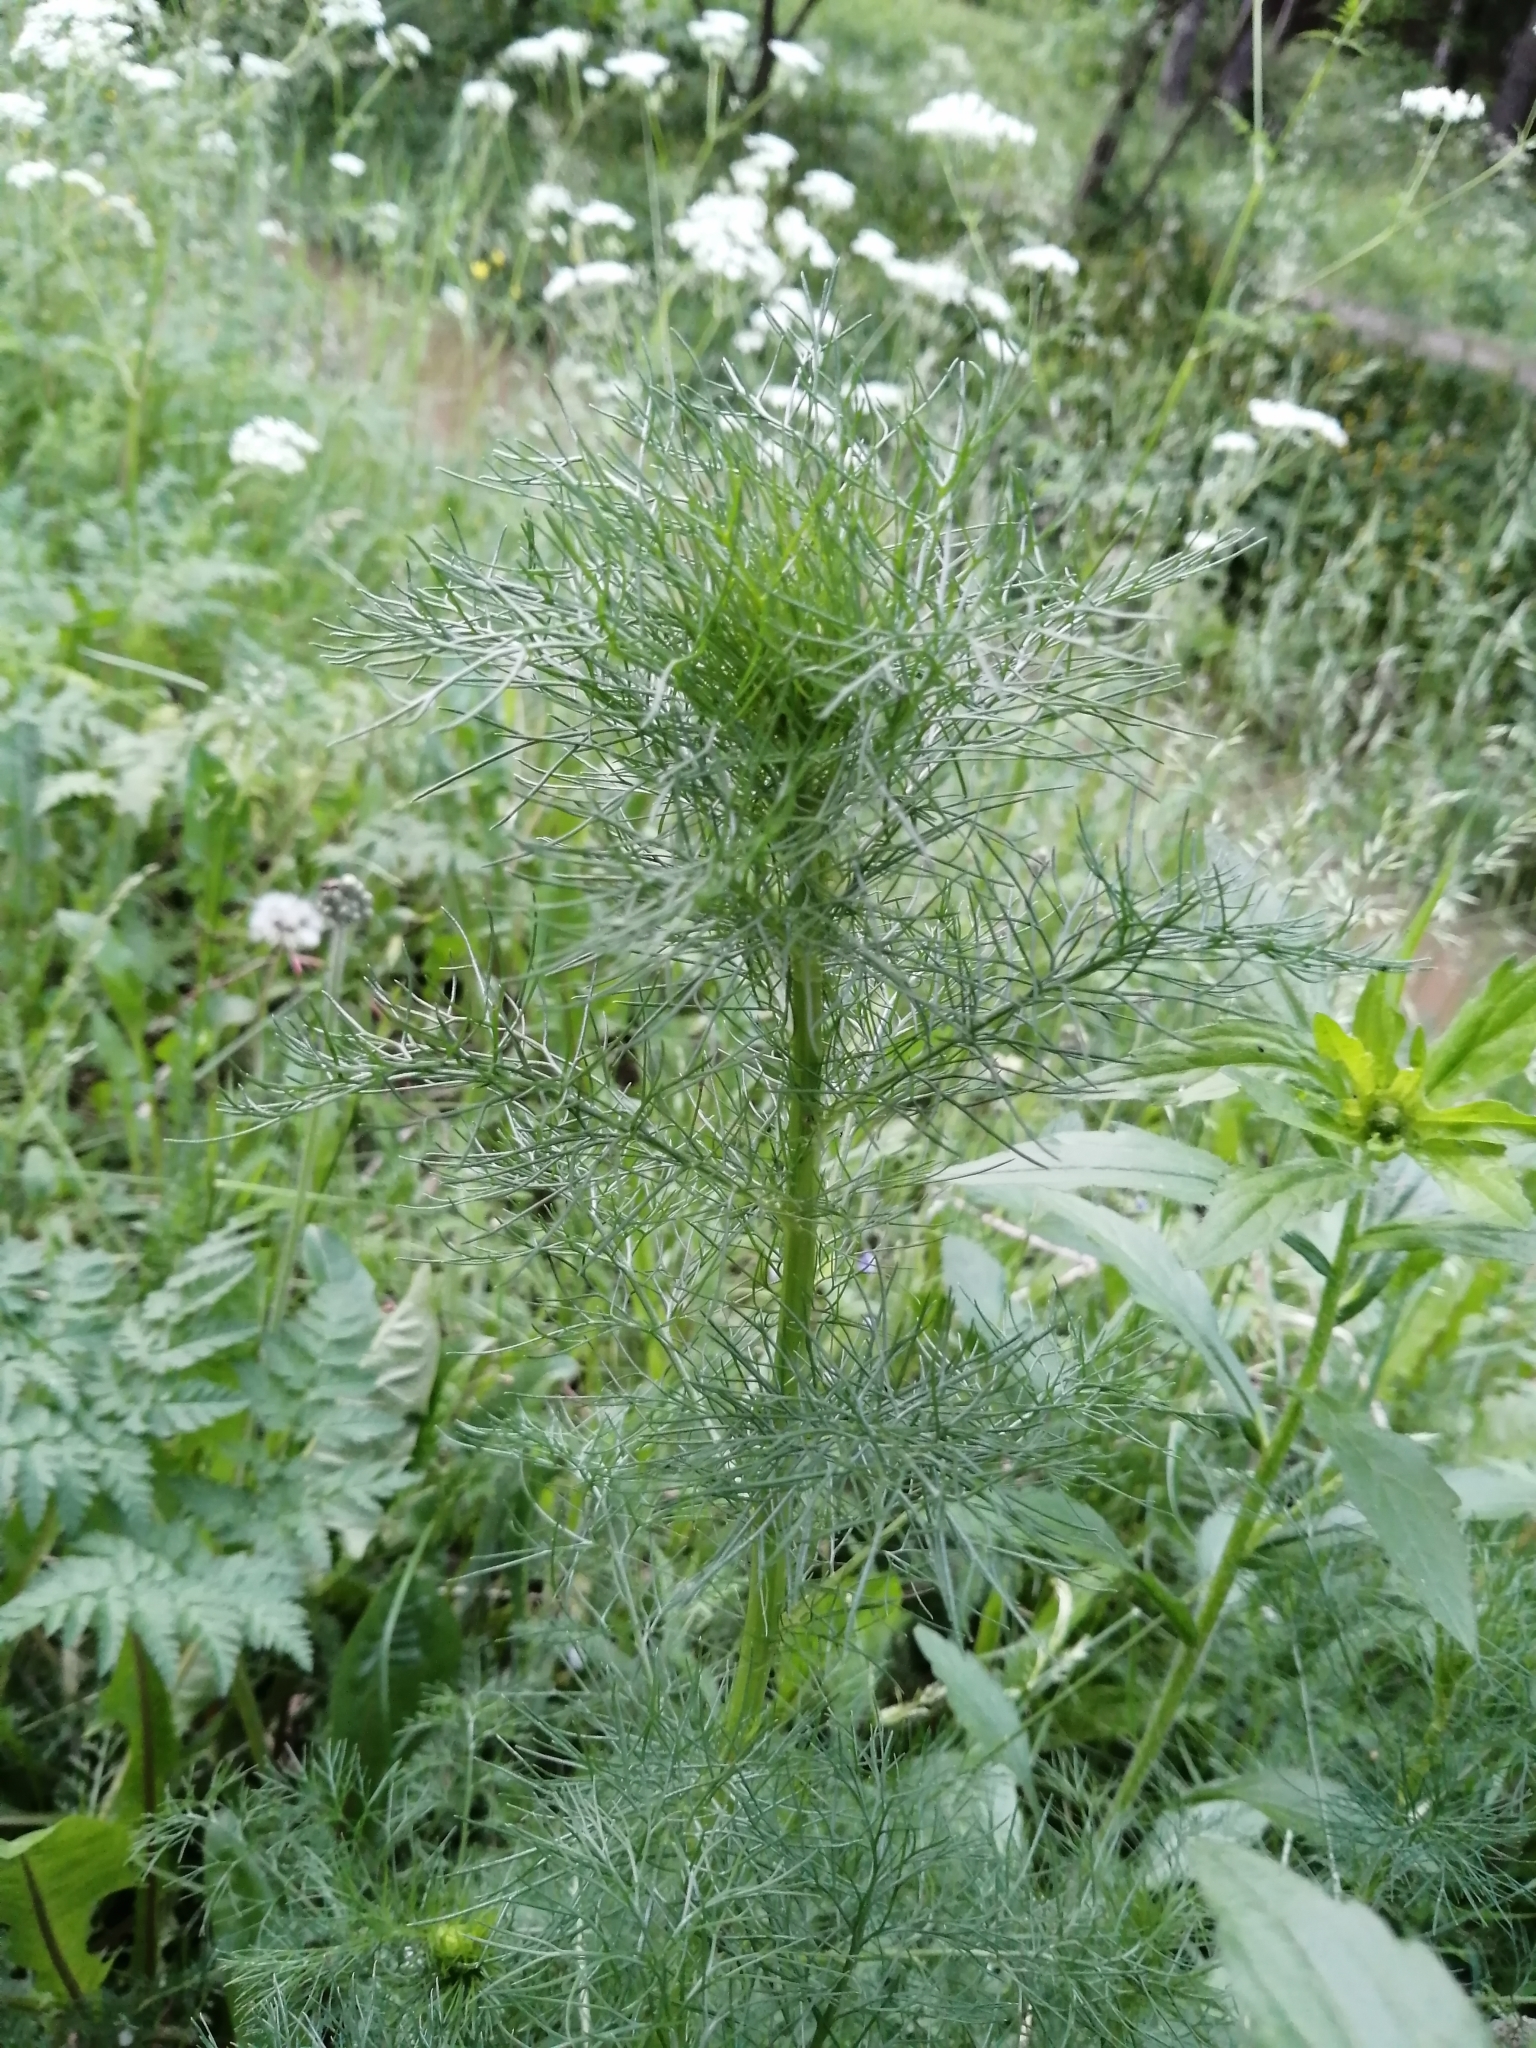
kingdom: Plantae
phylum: Tracheophyta
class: Magnoliopsida
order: Asterales
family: Asteraceae
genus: Tripleurospermum
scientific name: Tripleurospermum inodorum
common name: Scentless mayweed
